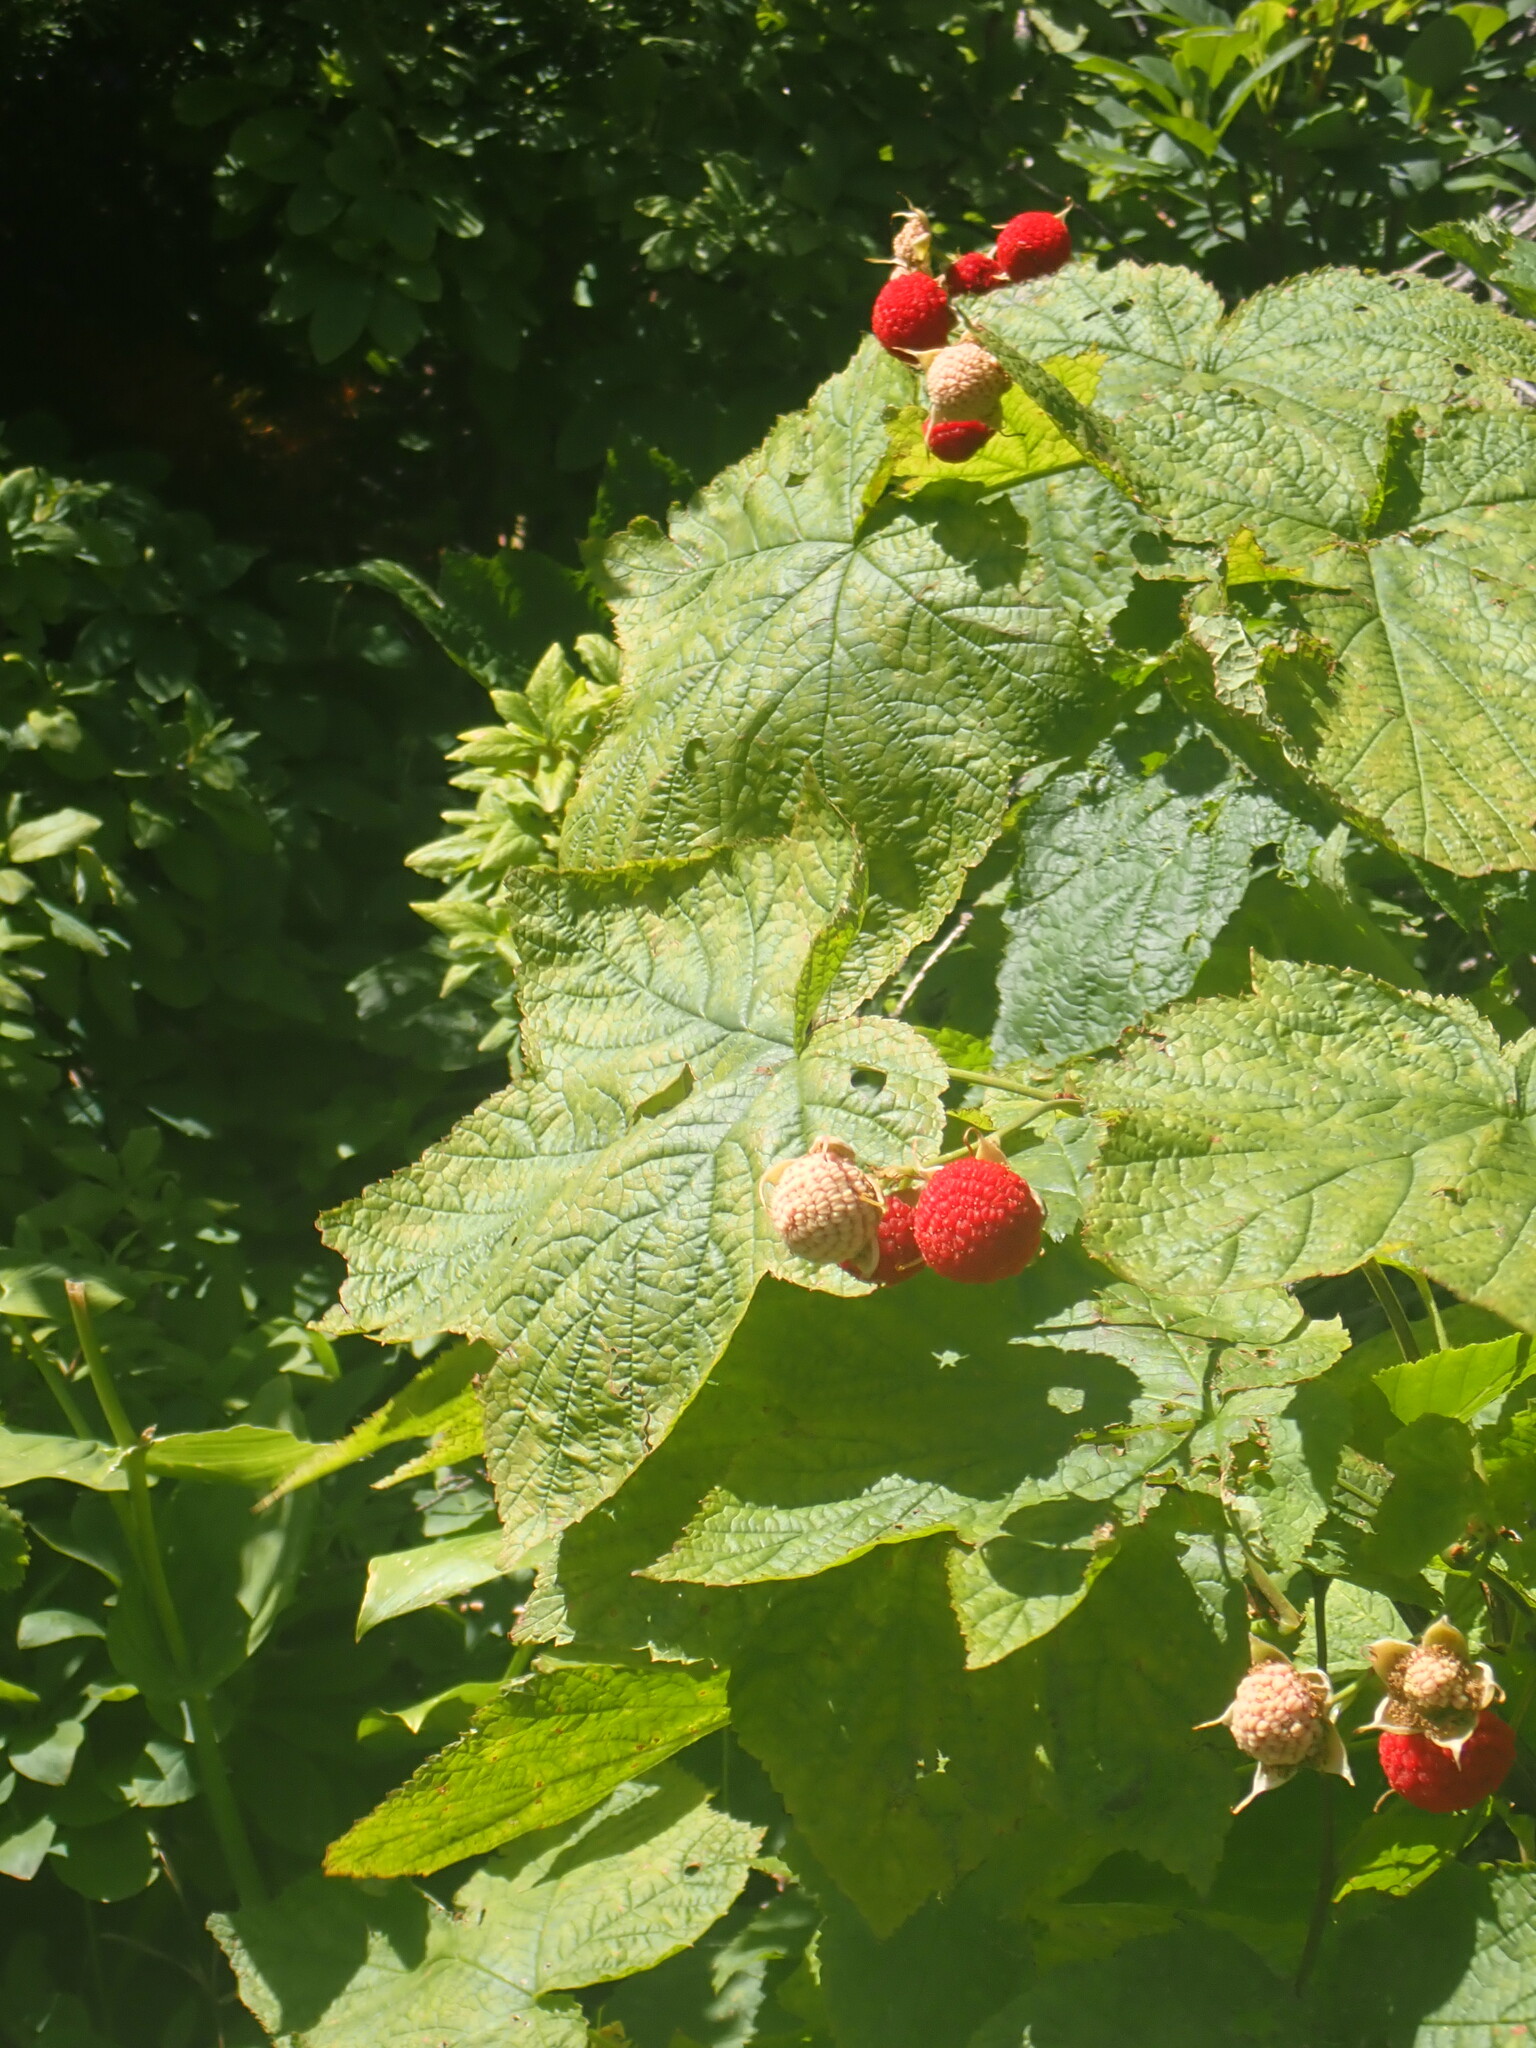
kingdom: Plantae
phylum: Tracheophyta
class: Magnoliopsida
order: Rosales
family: Rosaceae
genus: Rubus
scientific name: Rubus parviflorus
